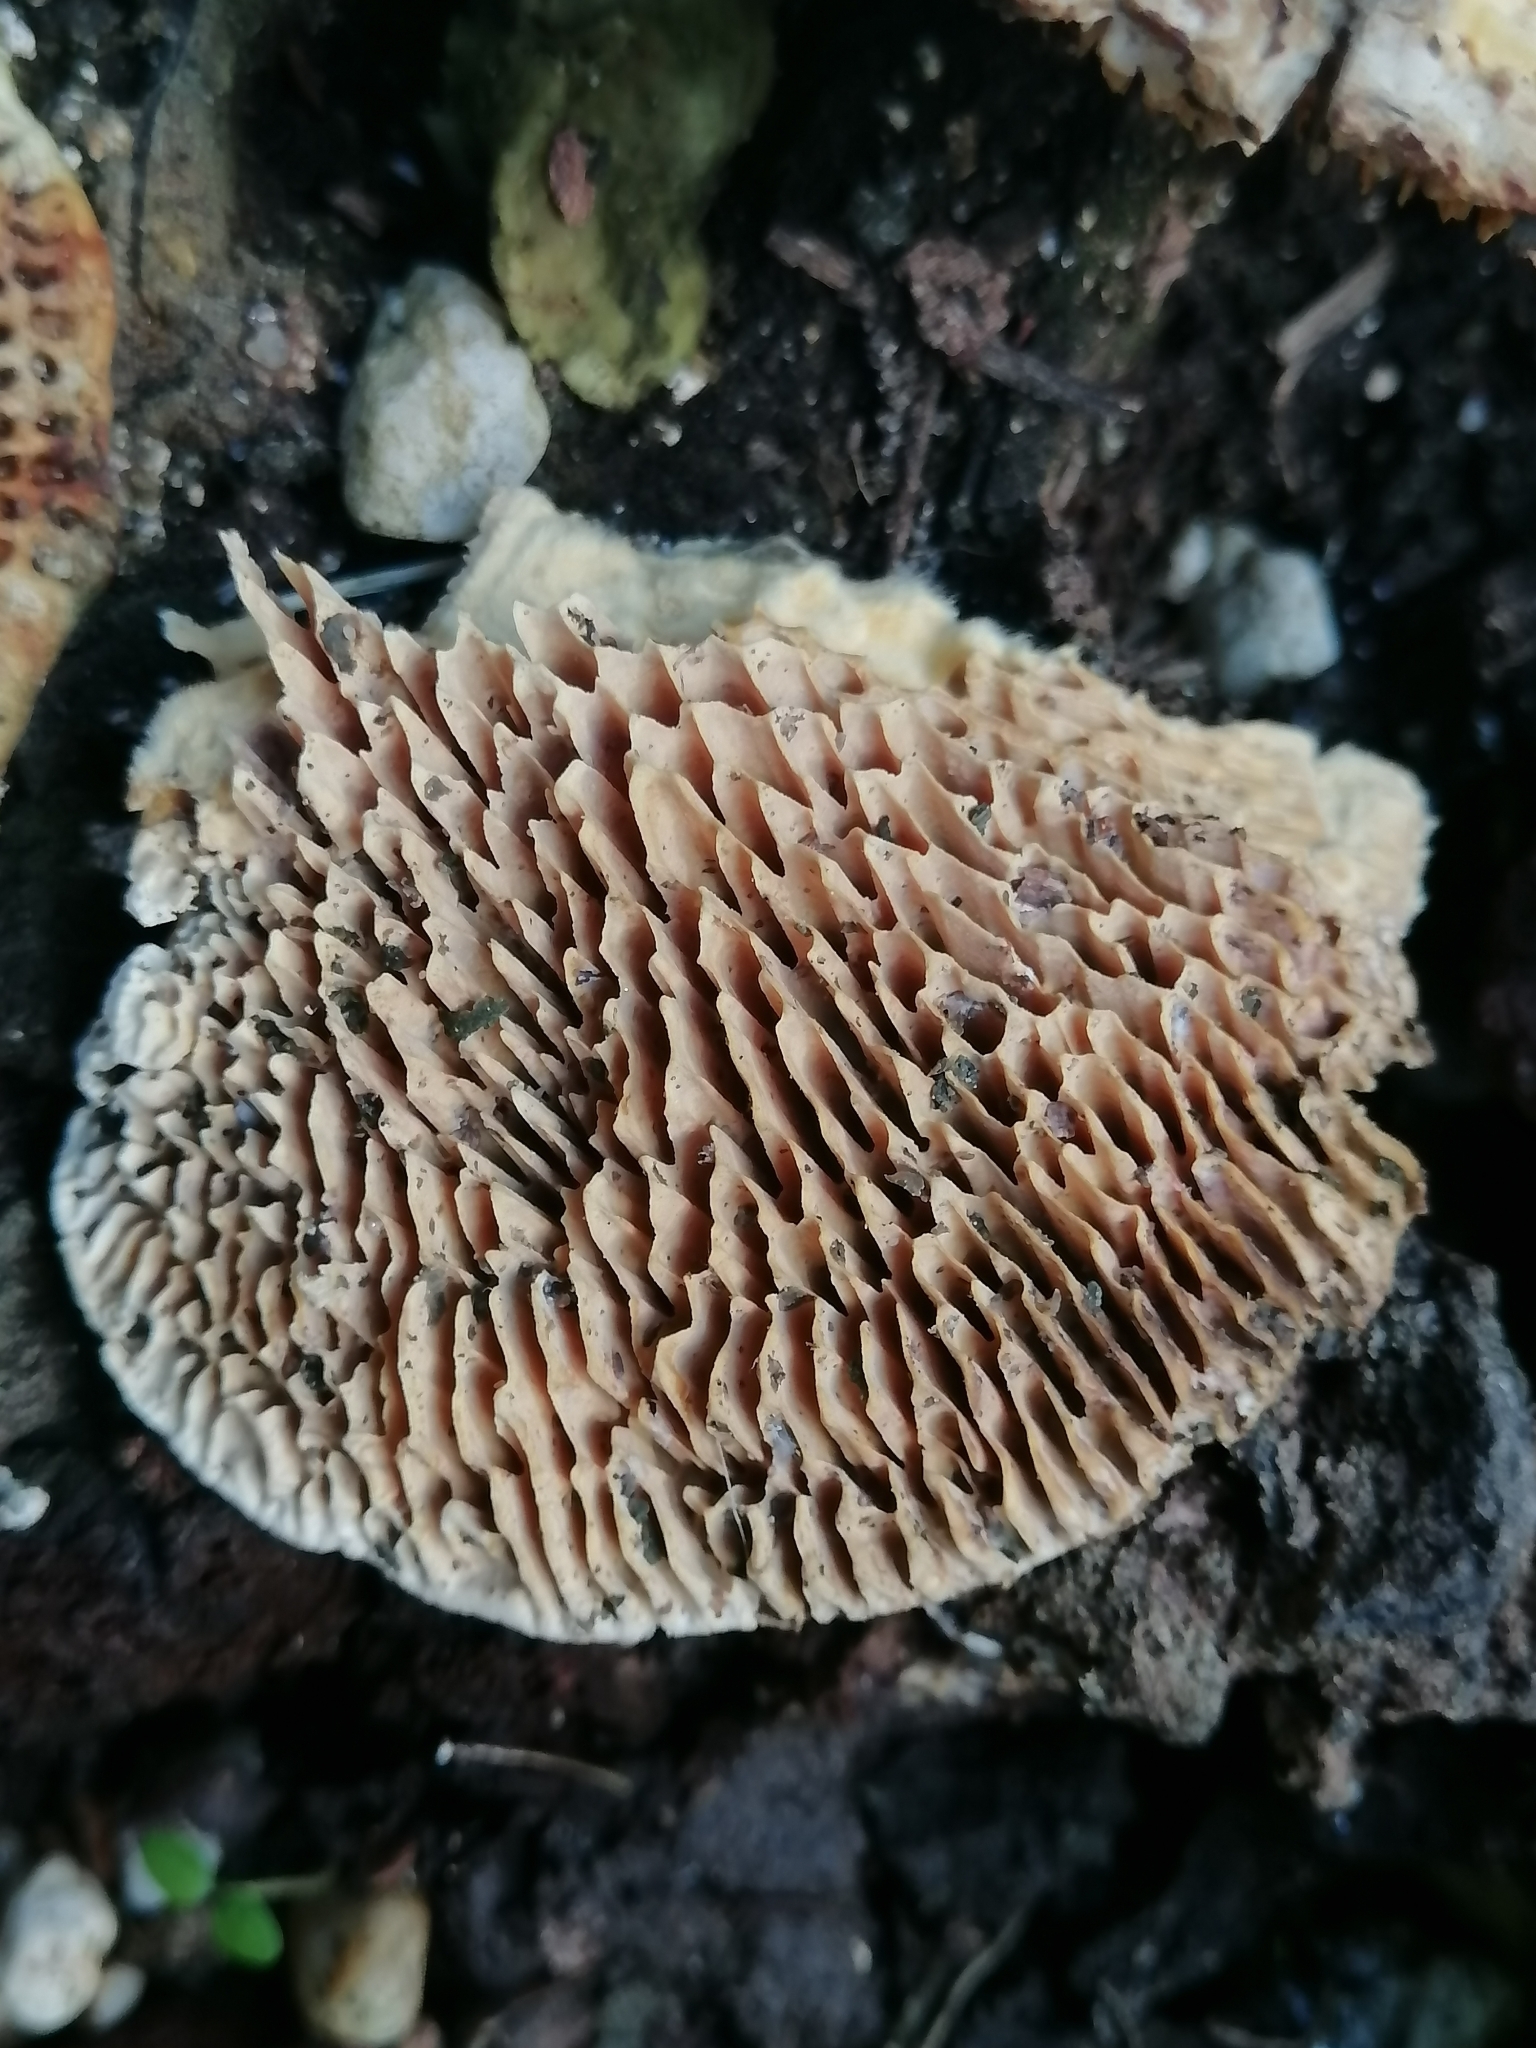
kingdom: Fungi
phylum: Basidiomycota
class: Agaricomycetes
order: Polyporales
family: Polyporaceae
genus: Lenzites
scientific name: Lenzites betulinus
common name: Birch mazegill
